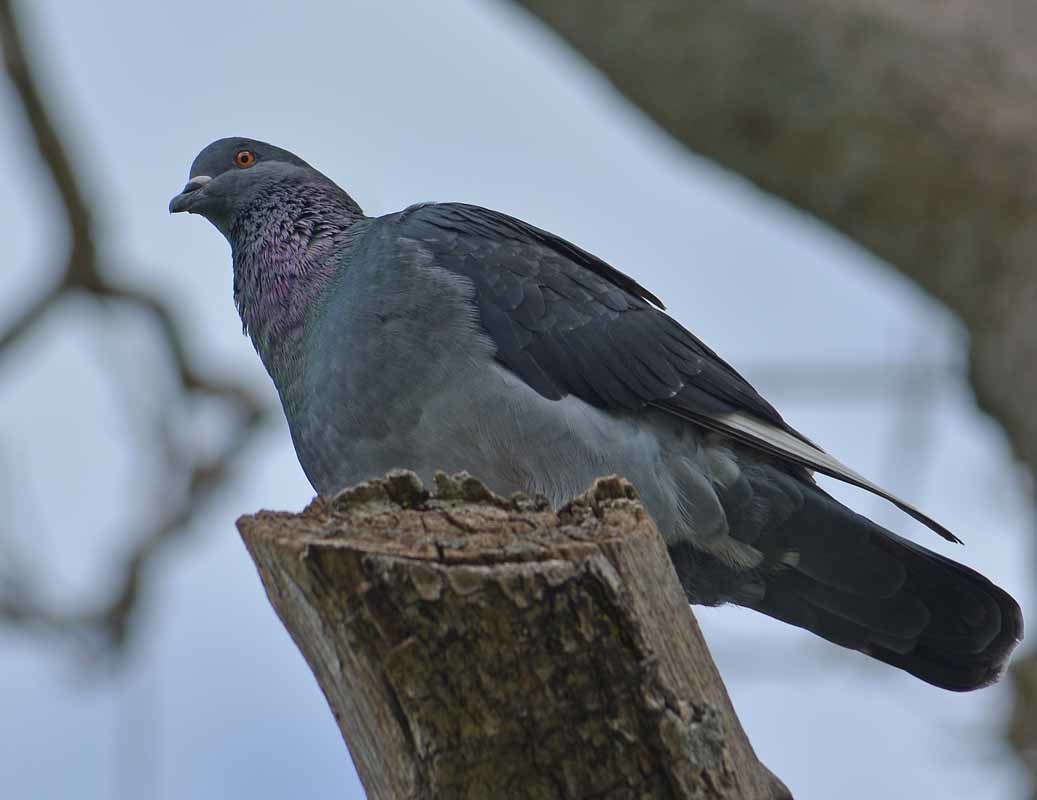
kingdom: Animalia
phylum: Chordata
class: Aves
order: Columbiformes
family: Columbidae
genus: Columba
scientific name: Columba livia
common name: Rock pigeon
